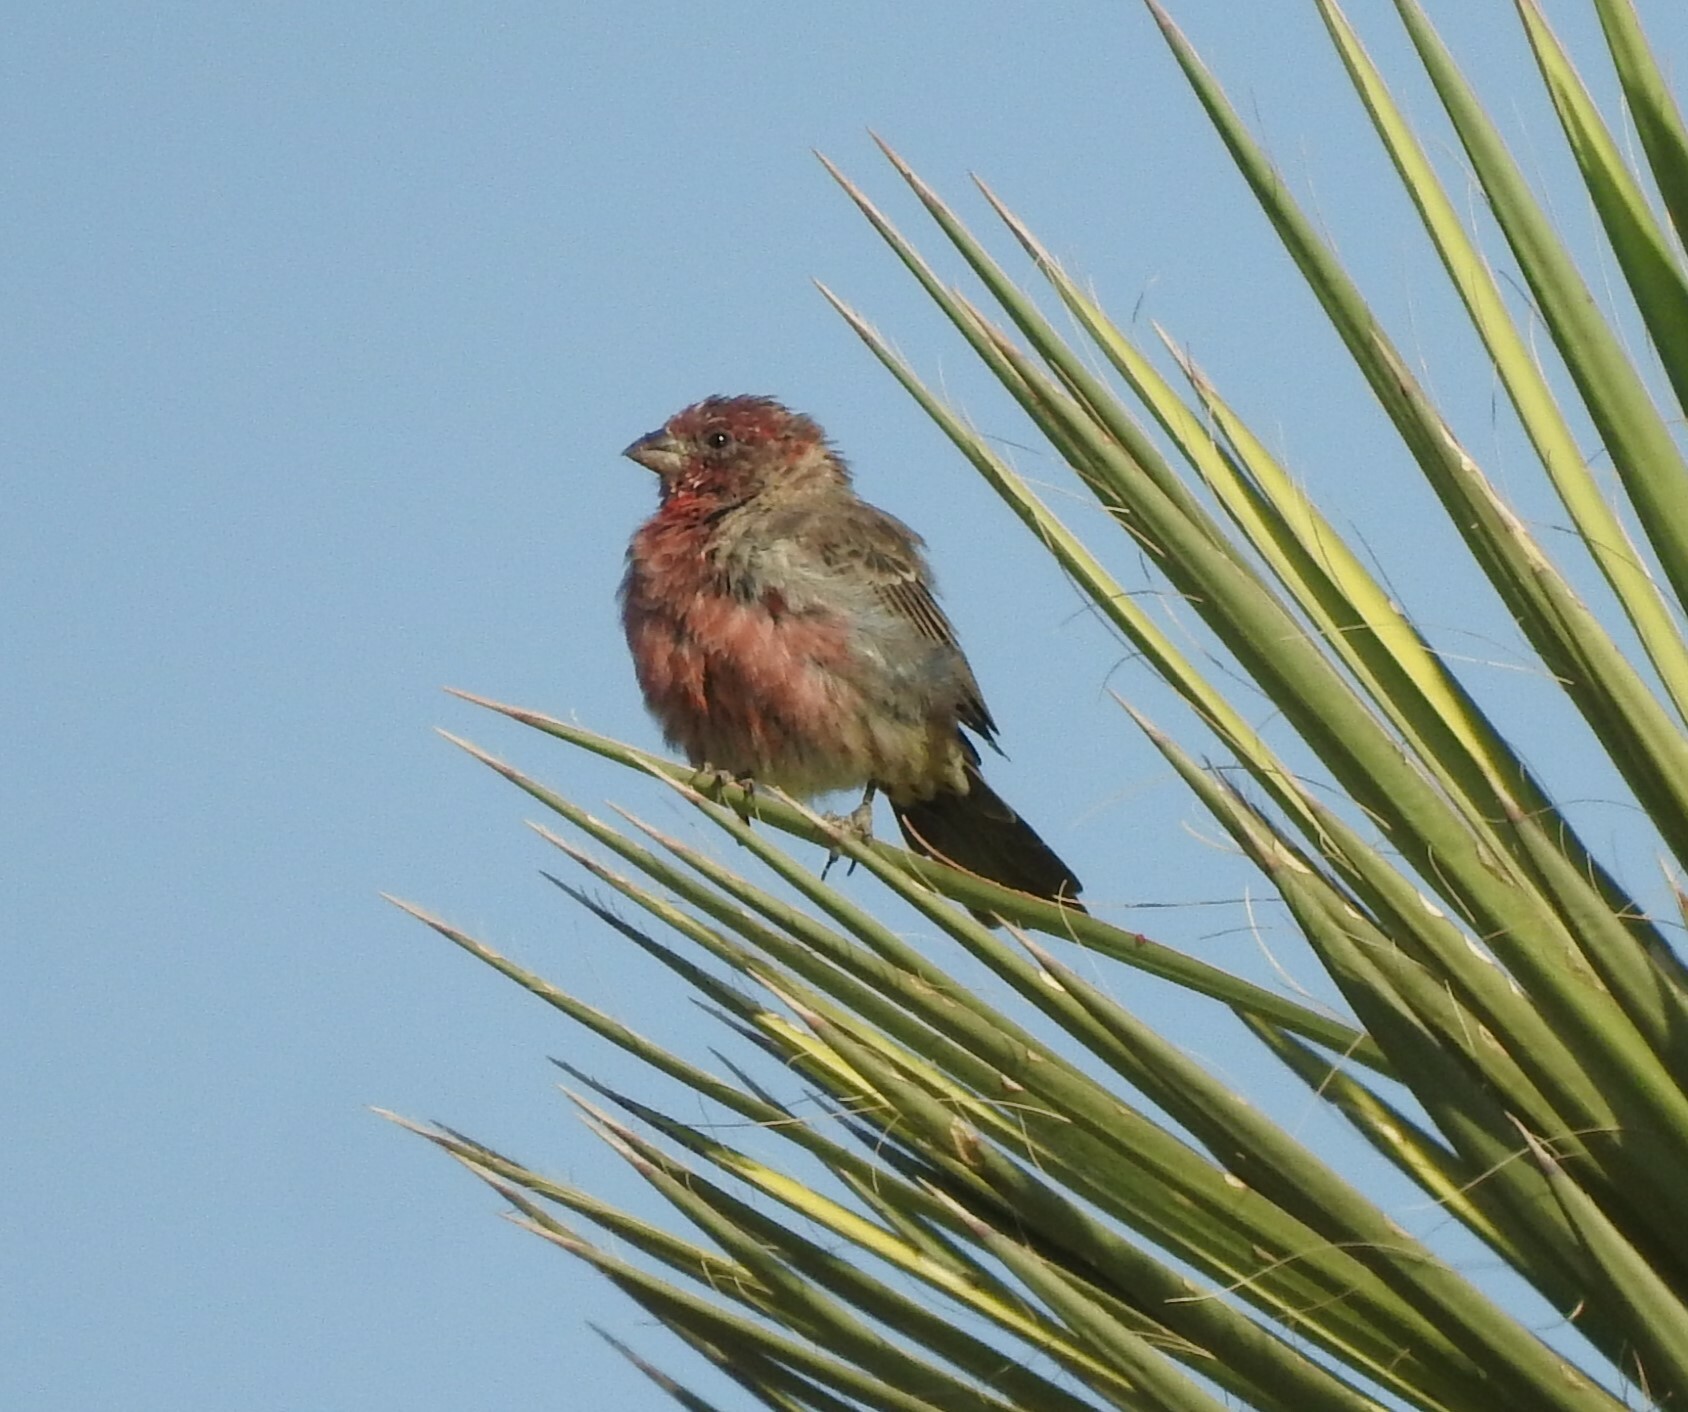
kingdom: Animalia
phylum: Chordata
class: Aves
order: Passeriformes
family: Fringillidae
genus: Haemorhous
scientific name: Haemorhous mexicanus
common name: House finch
